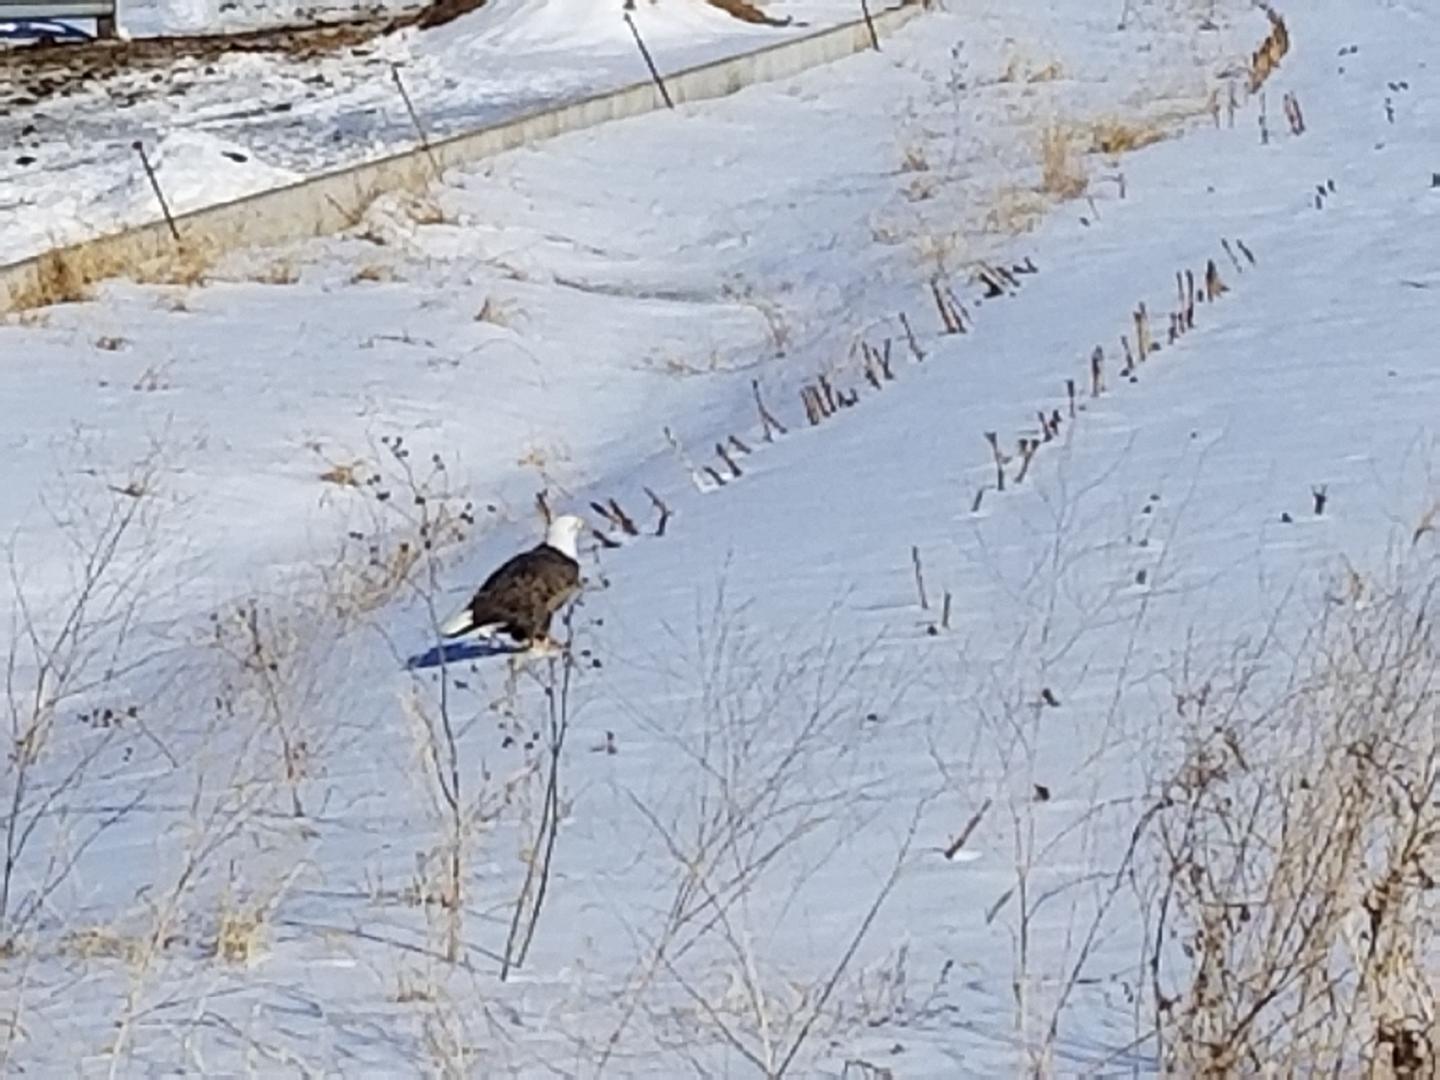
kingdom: Animalia
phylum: Chordata
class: Aves
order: Accipitriformes
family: Accipitridae
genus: Haliaeetus
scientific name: Haliaeetus leucocephalus
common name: Bald eagle
